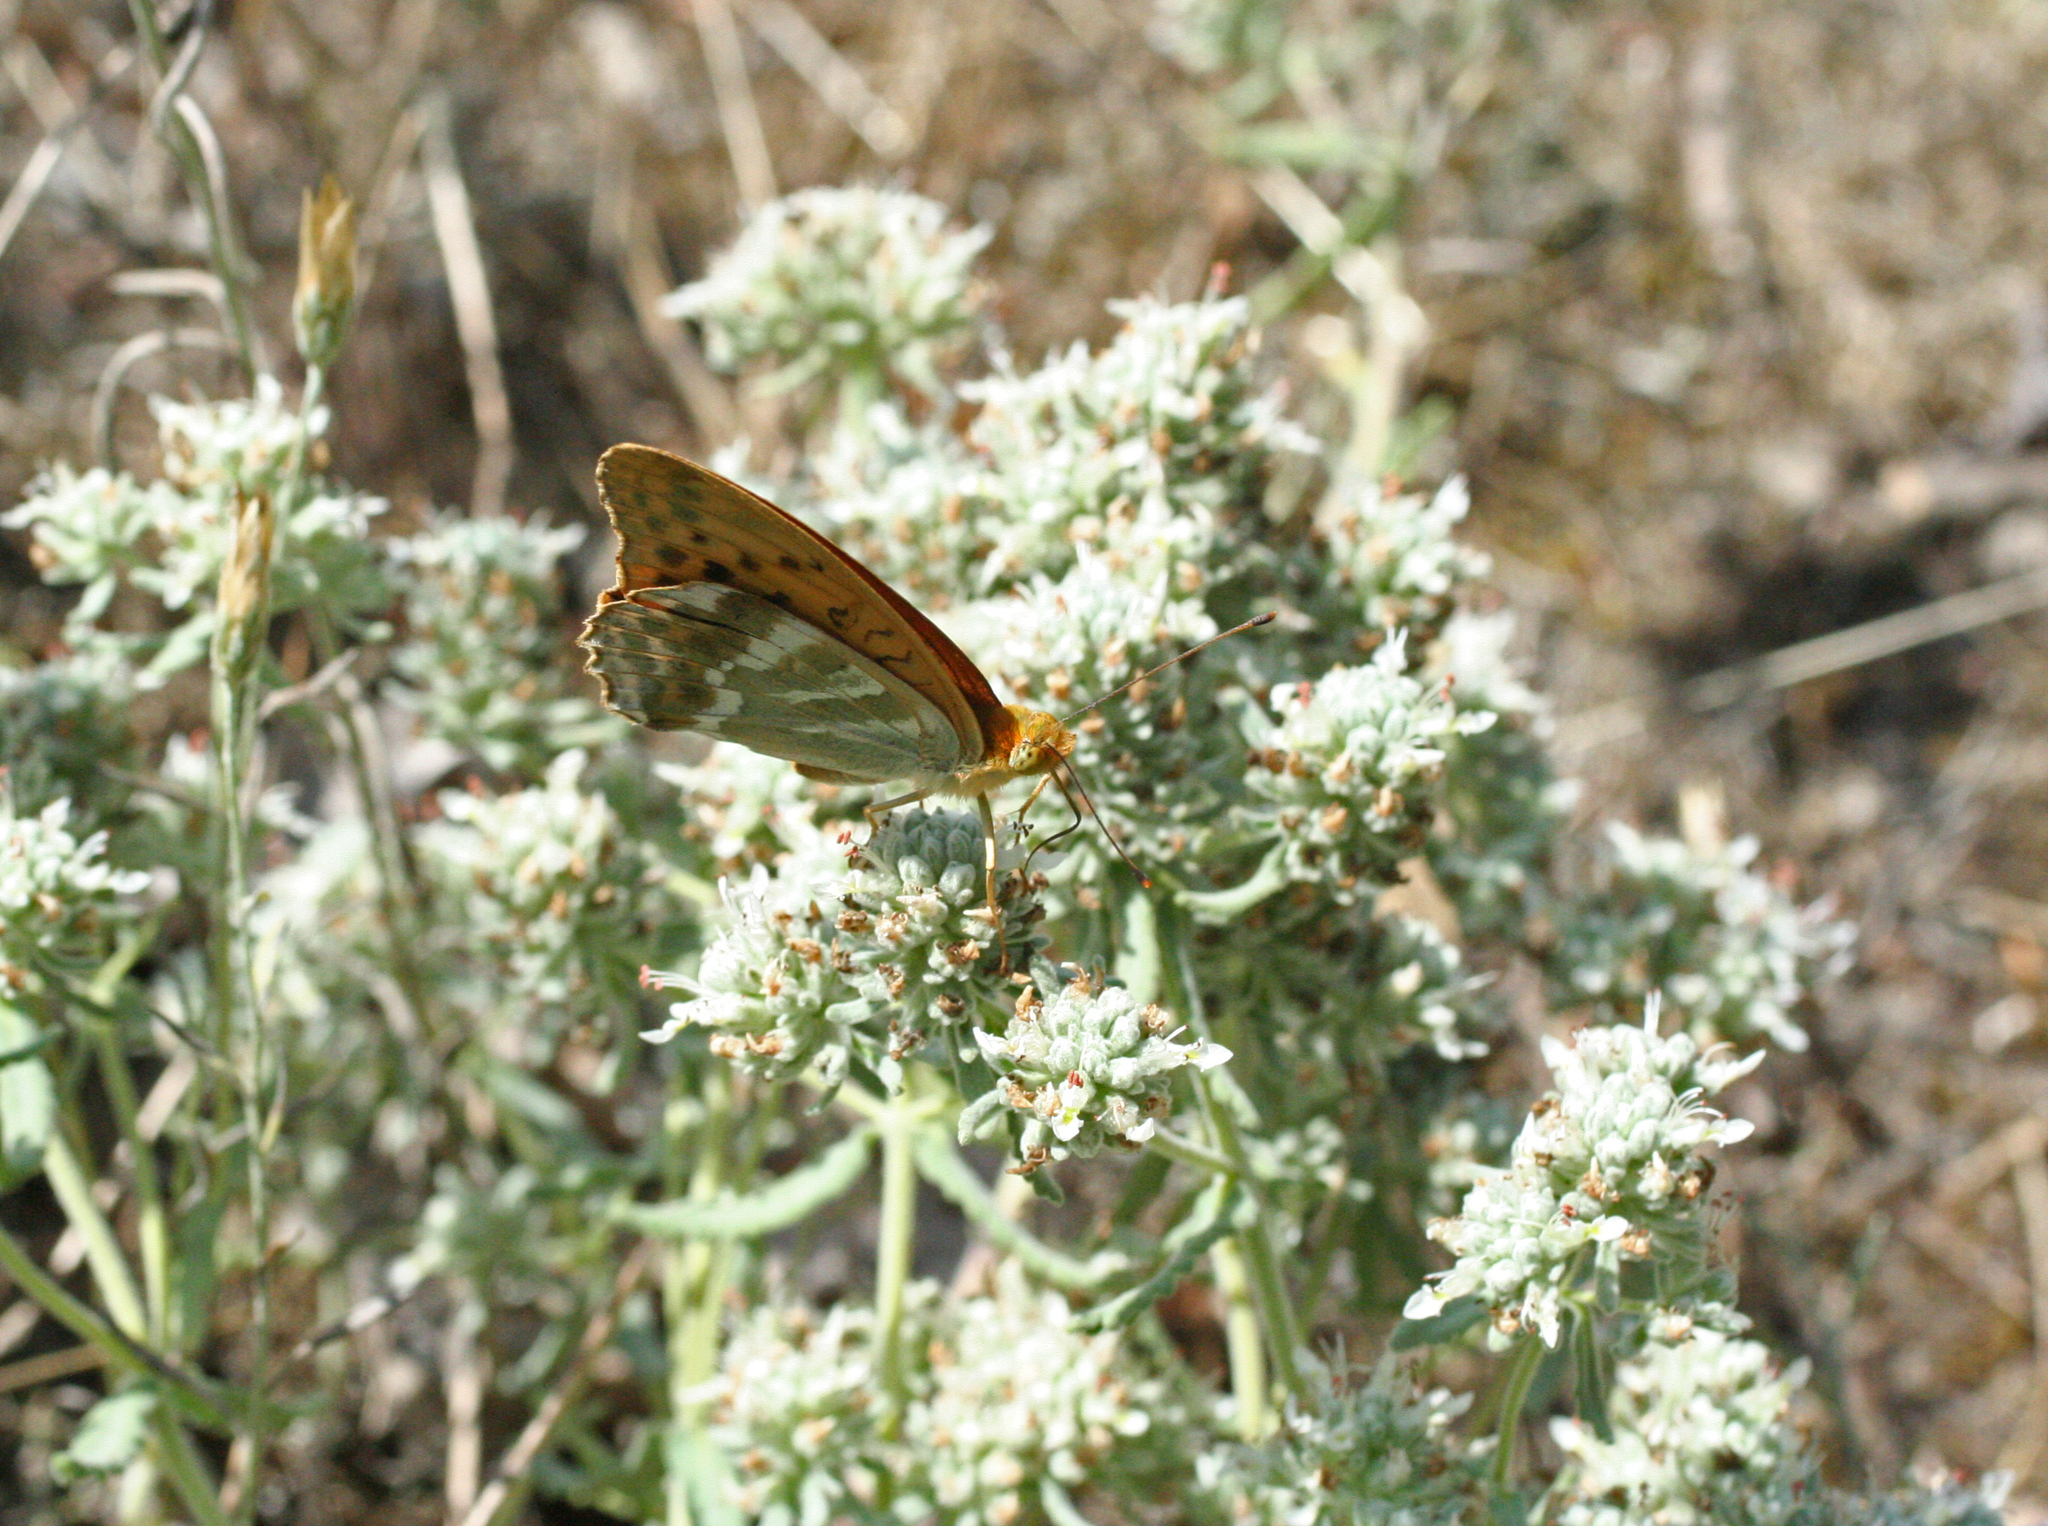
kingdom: Animalia
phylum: Arthropoda
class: Insecta
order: Lepidoptera
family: Nymphalidae
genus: Argynnis
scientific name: Argynnis paphia
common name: Silver-washed fritillary
